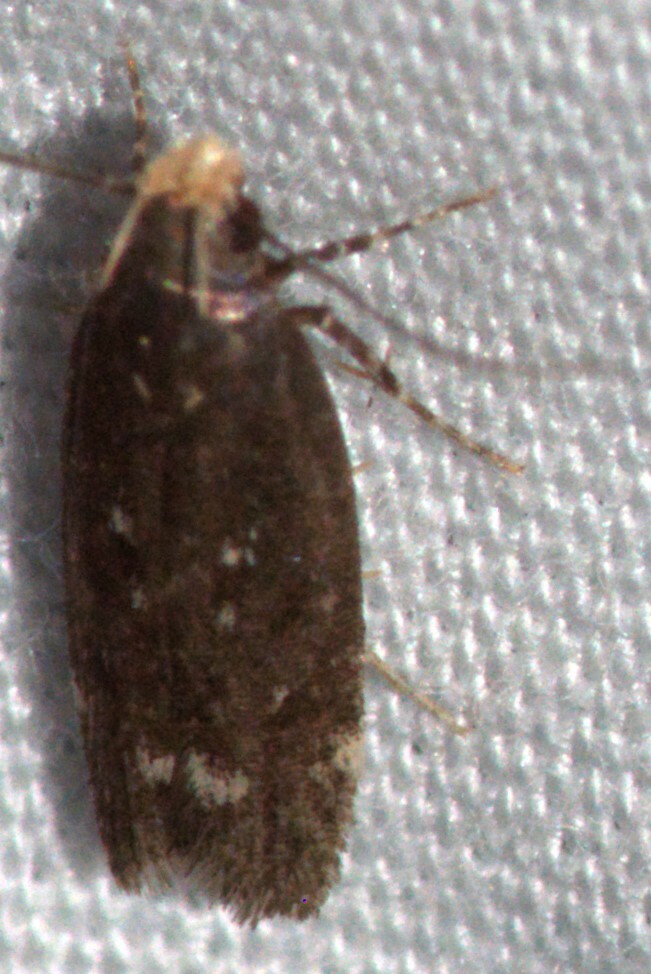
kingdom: Animalia
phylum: Arthropoda
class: Insecta
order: Lepidoptera
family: Gelechiidae
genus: Aroga
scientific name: Aroga
